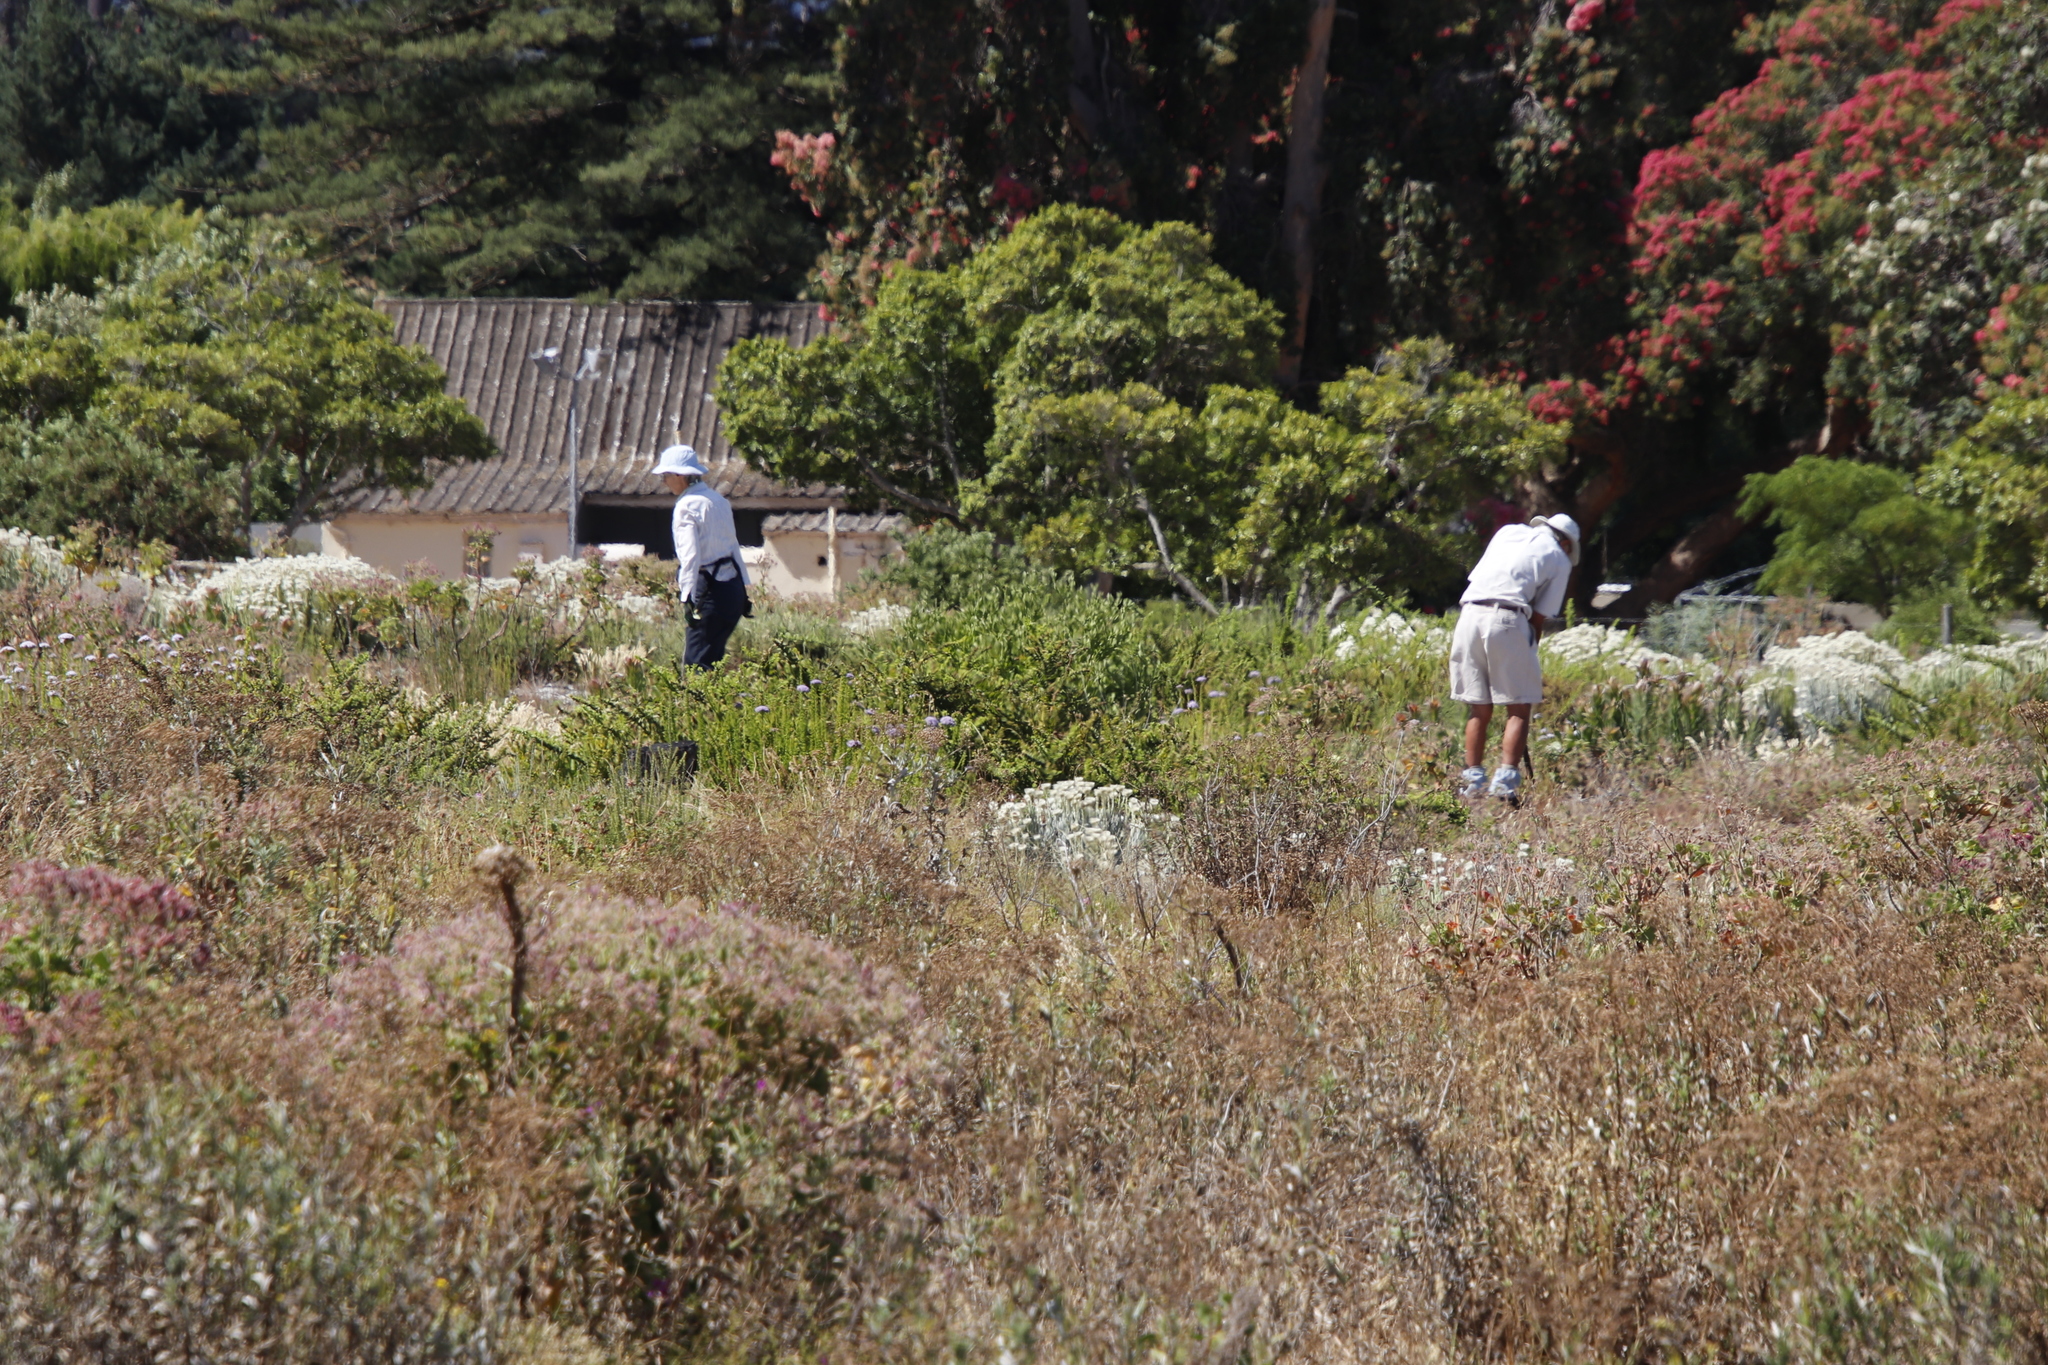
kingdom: Plantae
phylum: Tracheophyta
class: Magnoliopsida
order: Lamiales
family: Scrophulariaceae
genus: Oftia
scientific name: Oftia africana
